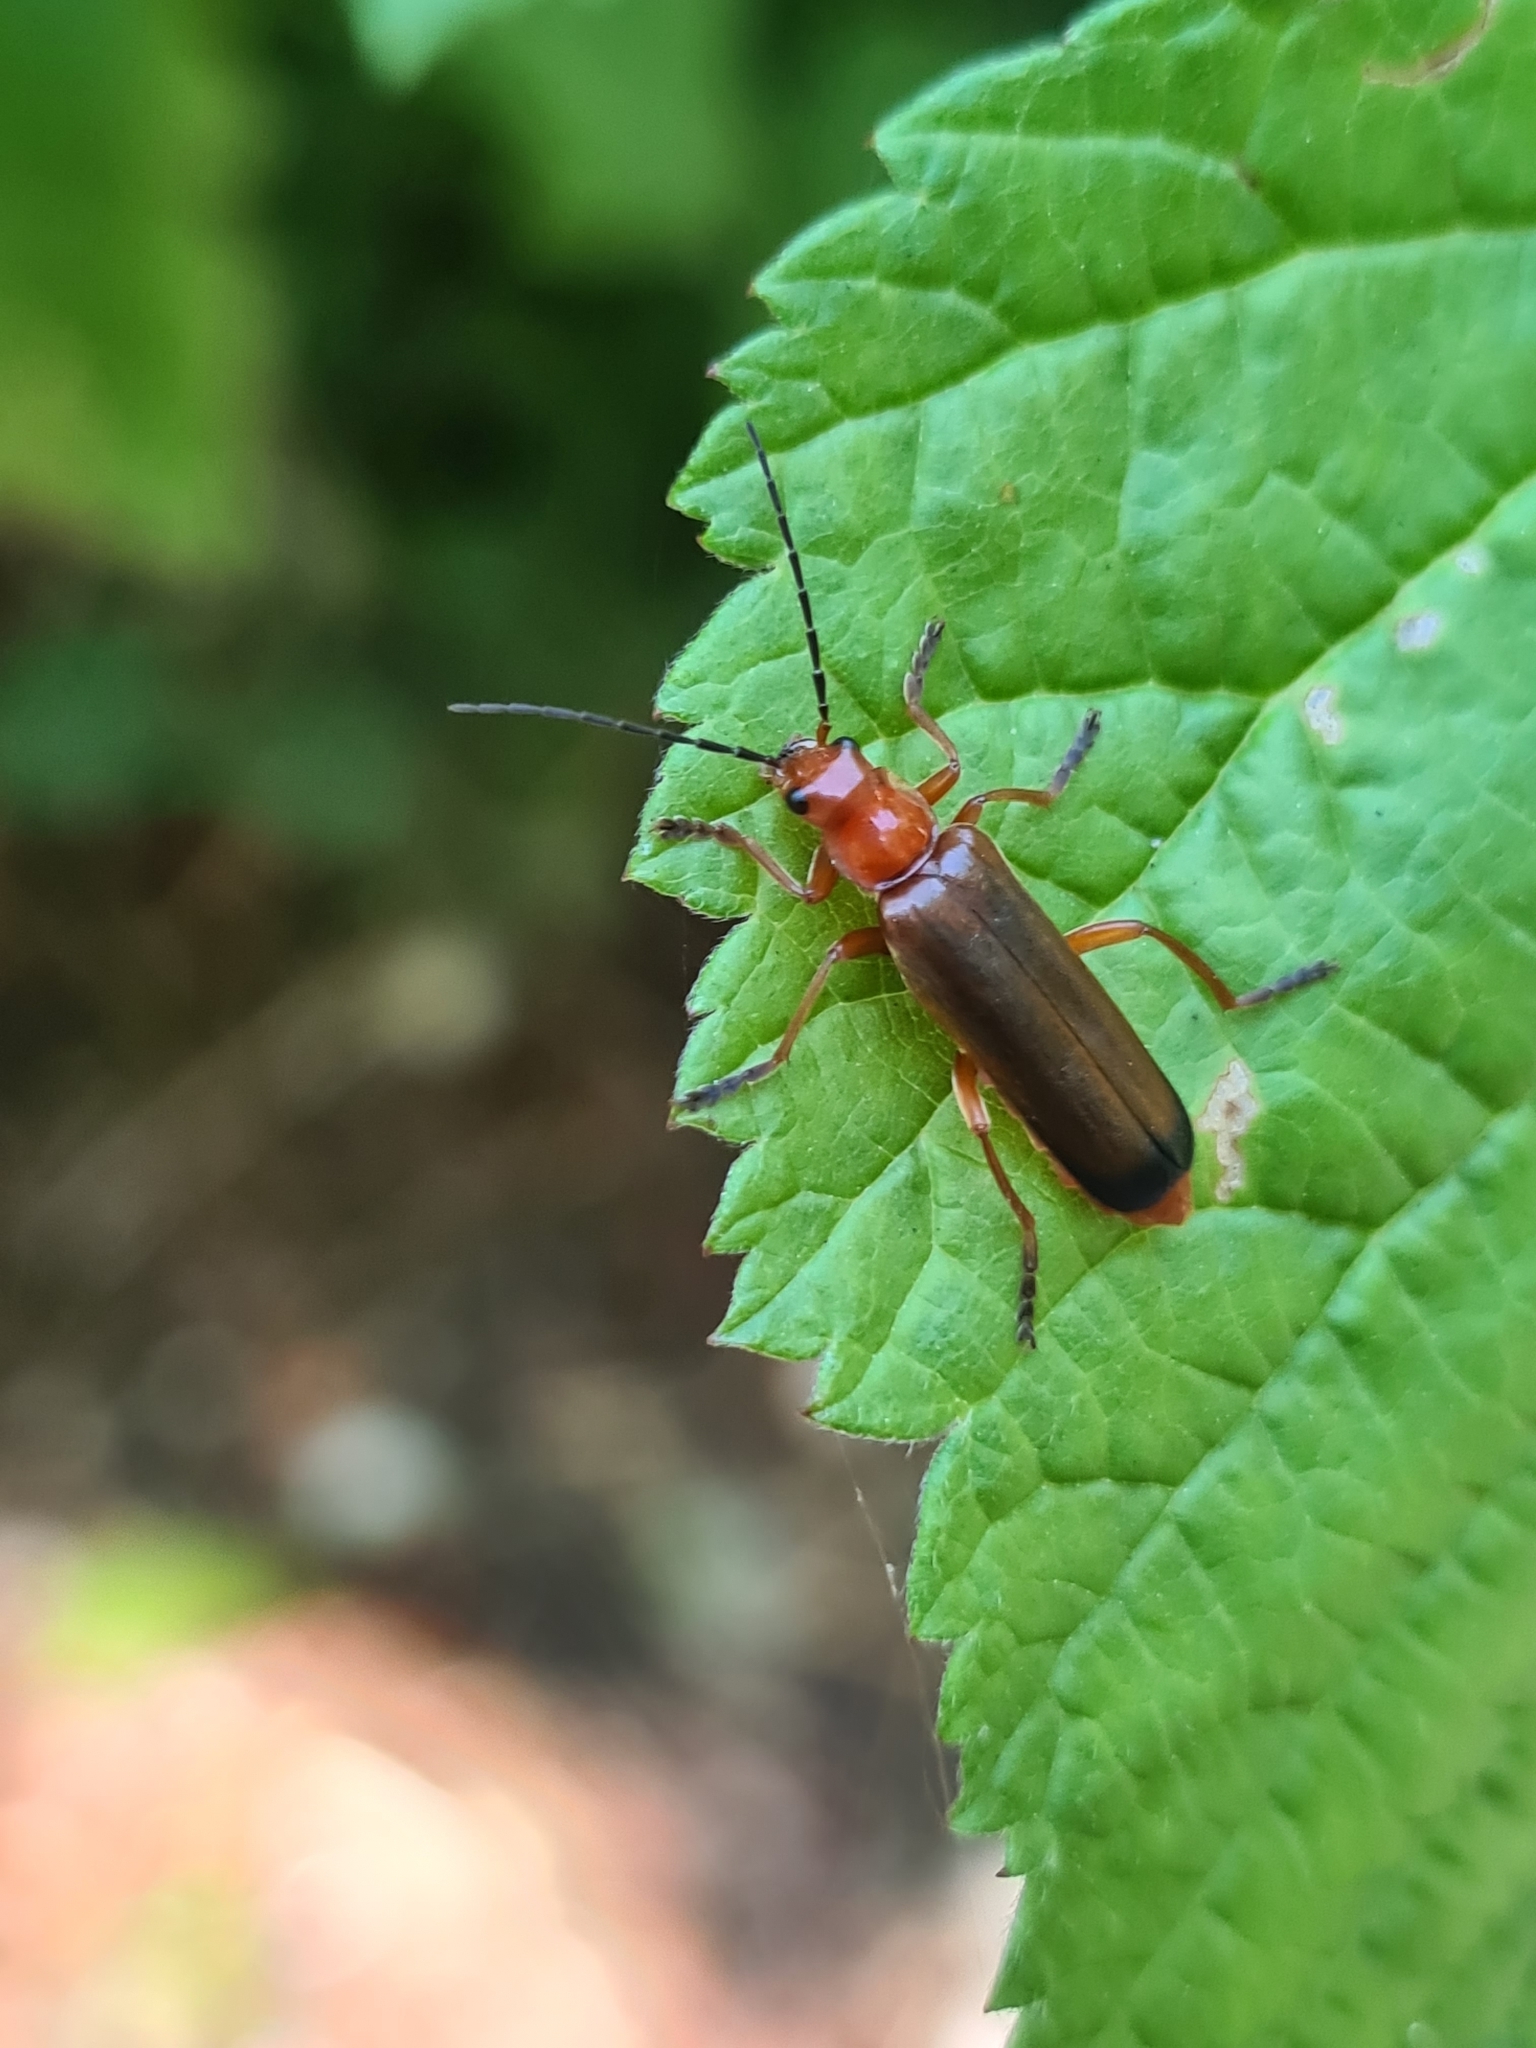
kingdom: Animalia
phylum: Arthropoda
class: Insecta
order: Coleoptera
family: Cantharidae
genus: Ancistronycha
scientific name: Ancistronycha erichsonii
